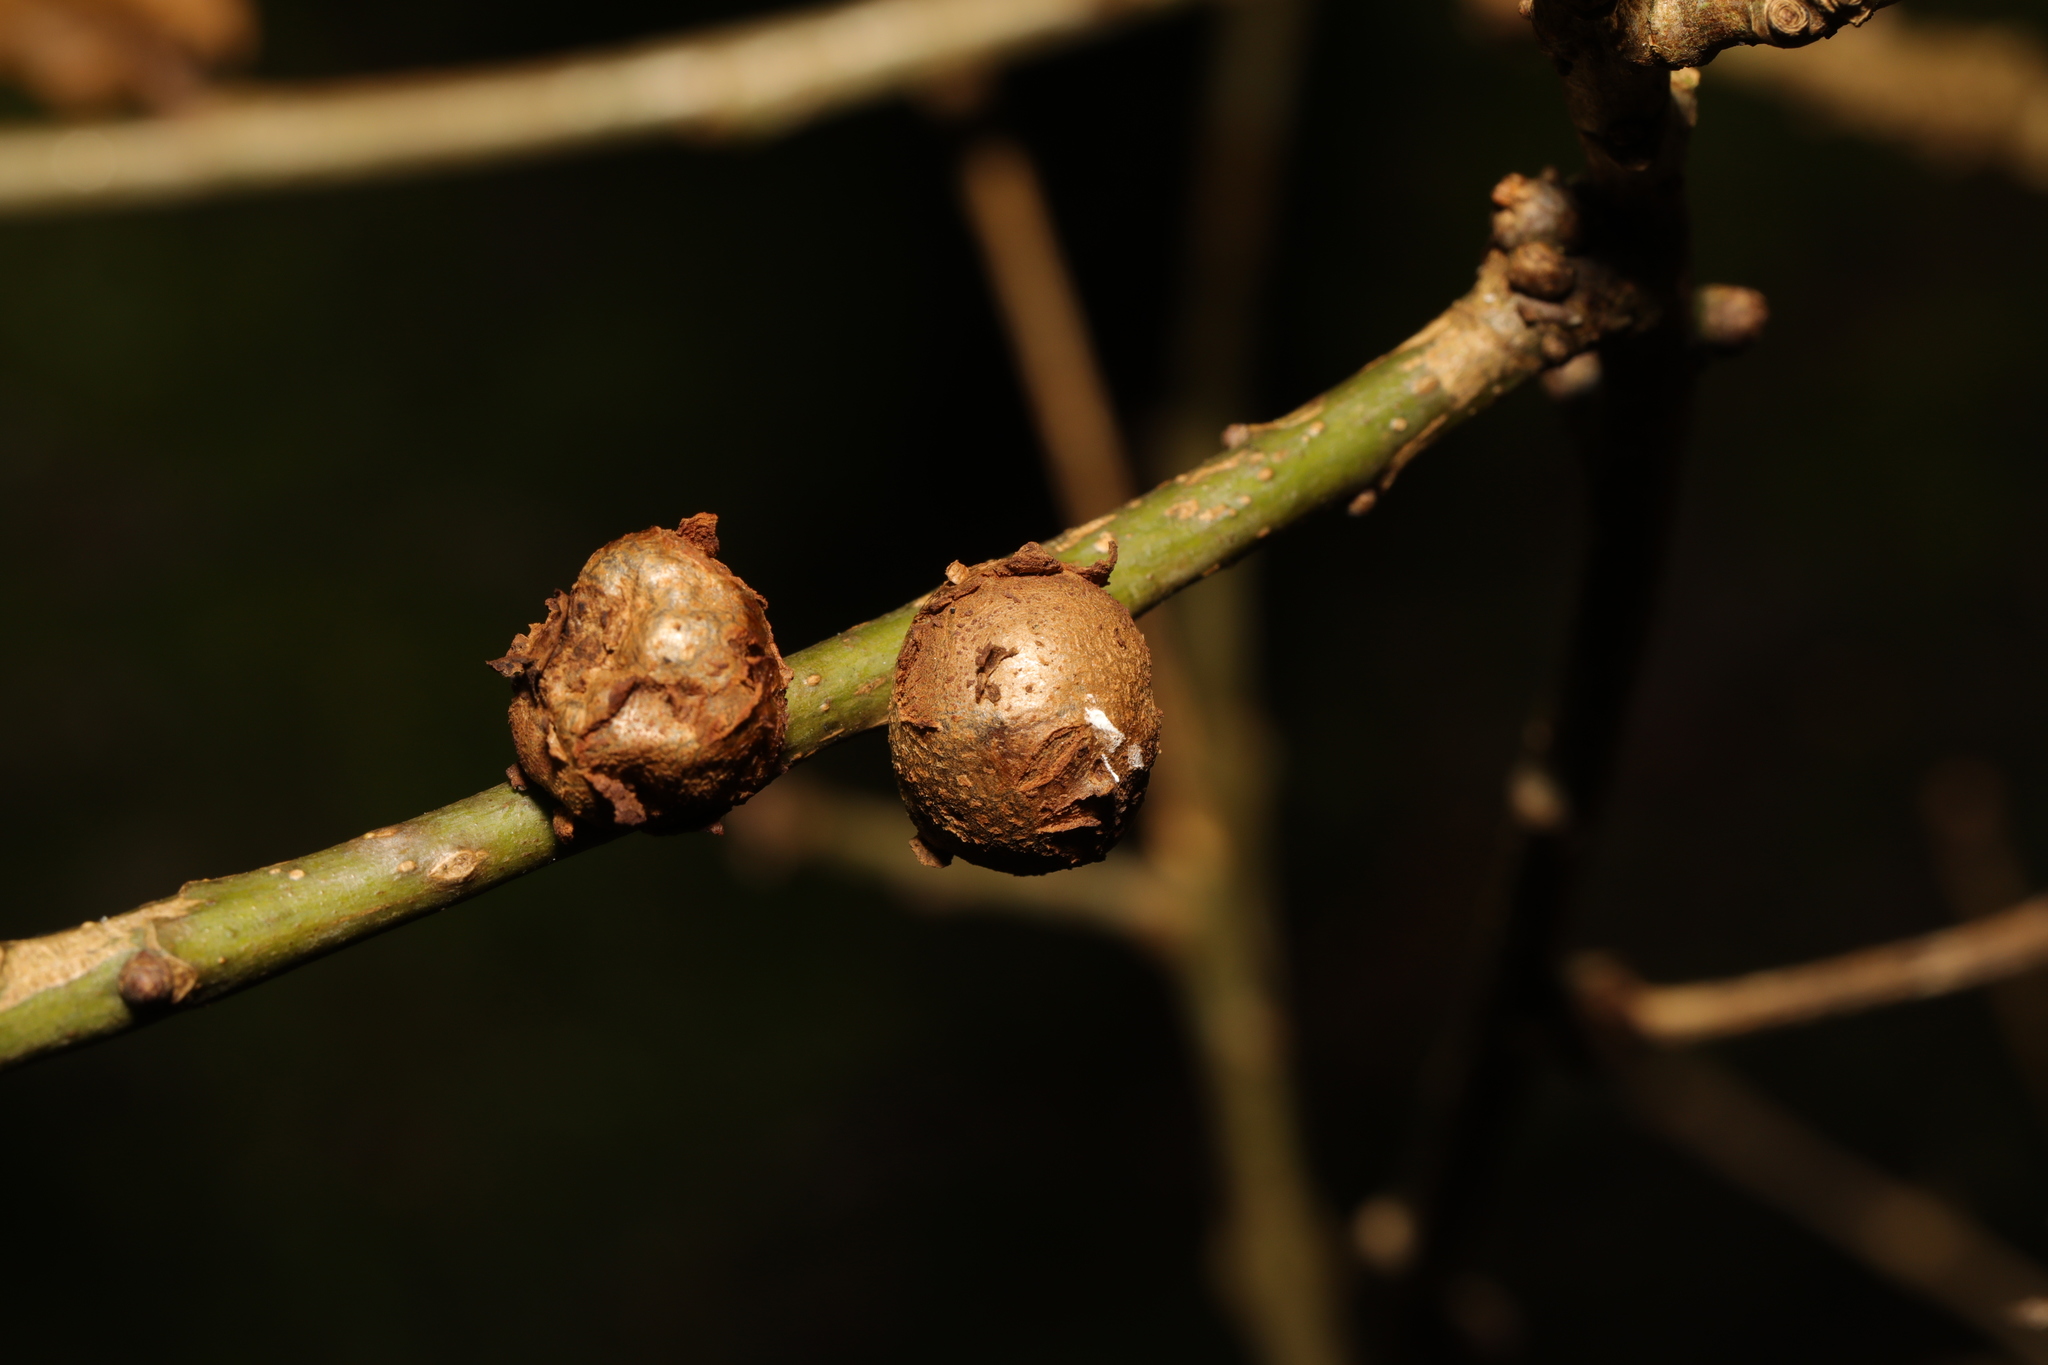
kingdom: Animalia
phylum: Arthropoda
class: Insecta
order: Hymenoptera
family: Cynipidae
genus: Andricus
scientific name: Andricus lignicolus
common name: Cola-nut gall
